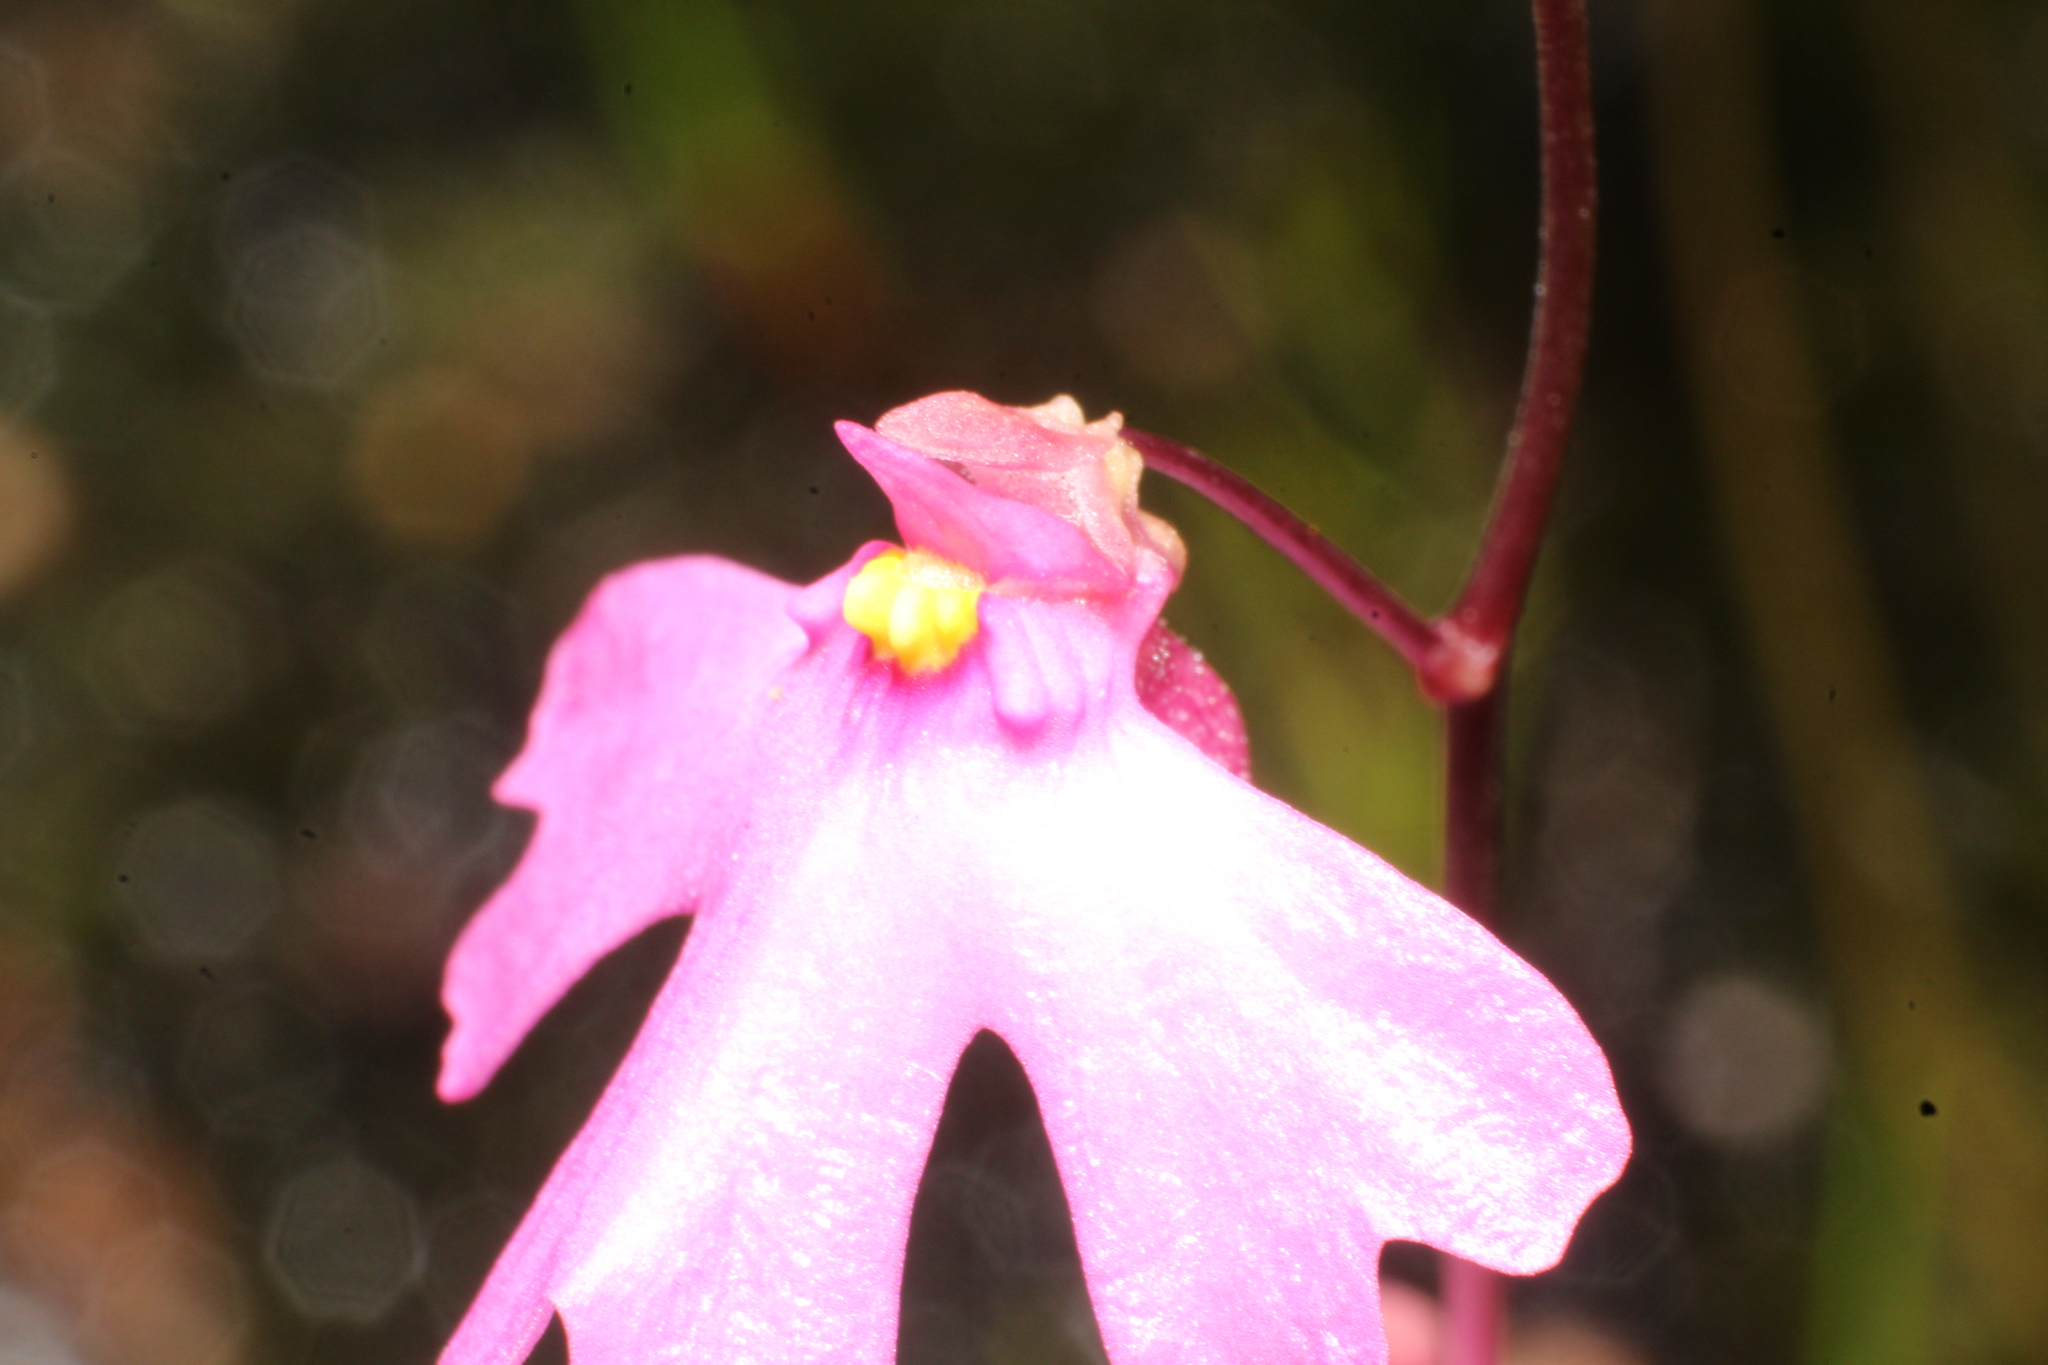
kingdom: Plantae
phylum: Tracheophyta
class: Magnoliopsida
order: Lamiales
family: Lentibulariaceae
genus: Utricularia
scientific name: Utricularia multifida
